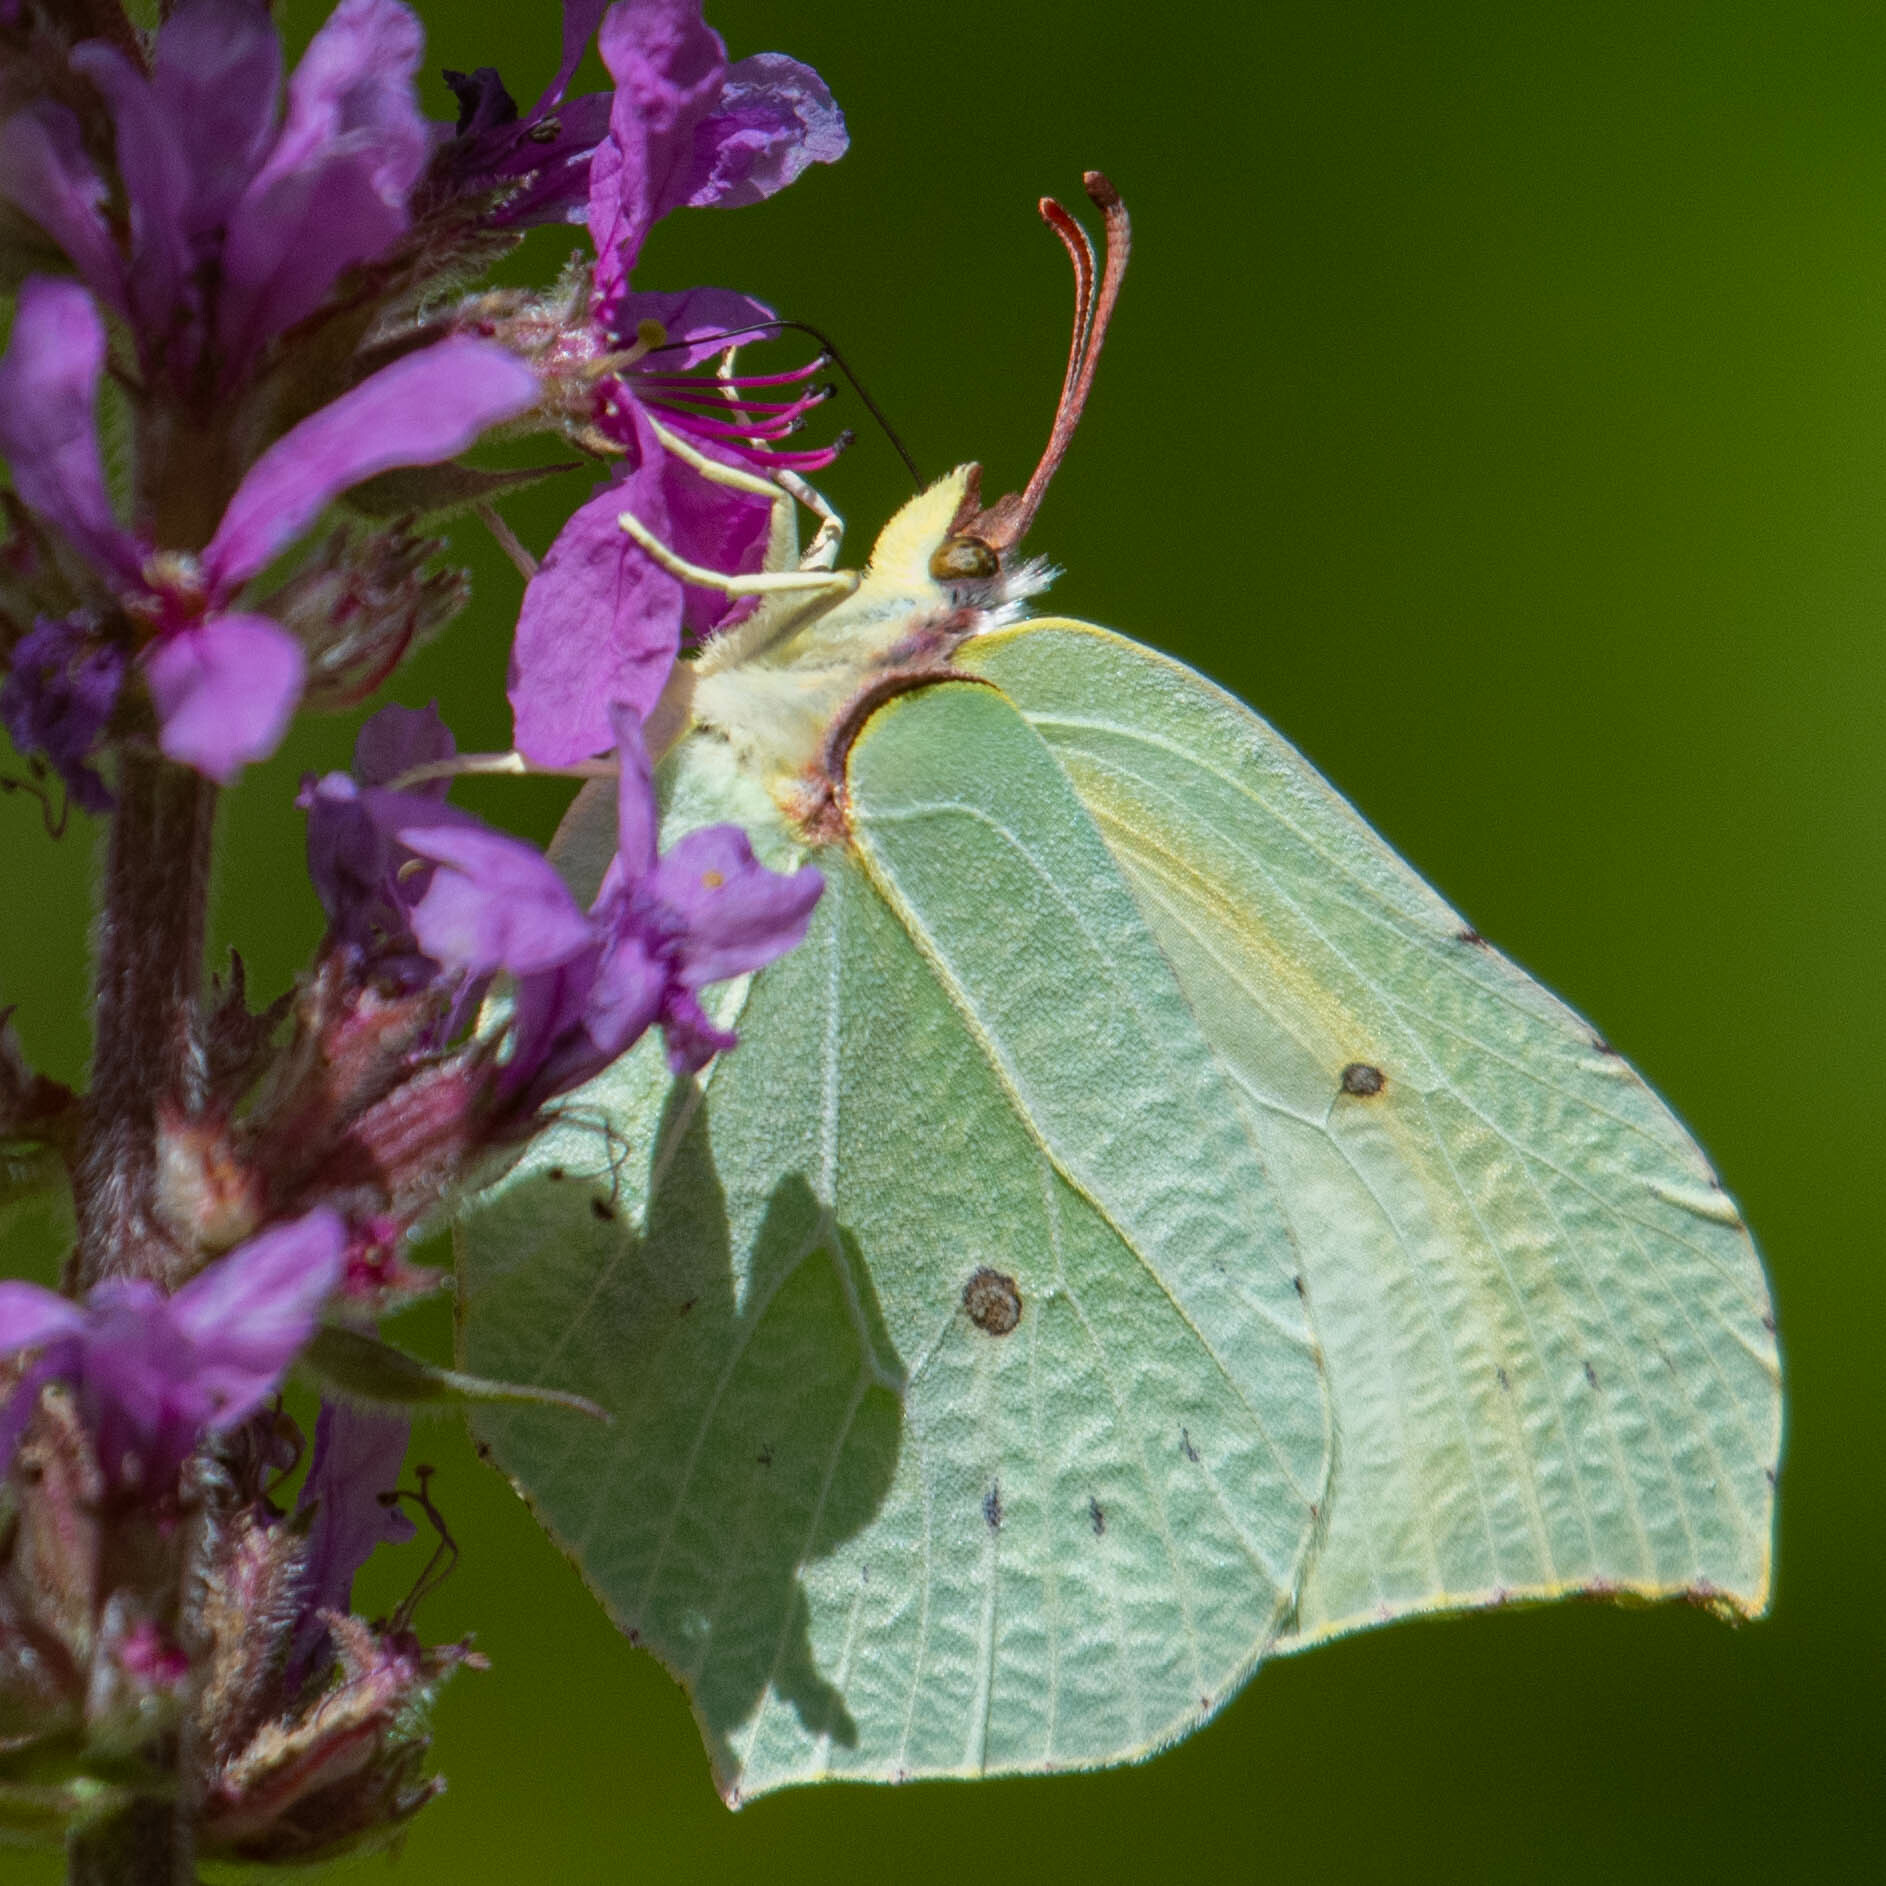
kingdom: Animalia
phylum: Arthropoda
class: Insecta
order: Lepidoptera
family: Pieridae
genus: Gonepteryx
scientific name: Gonepteryx rhamni
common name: Brimstone
